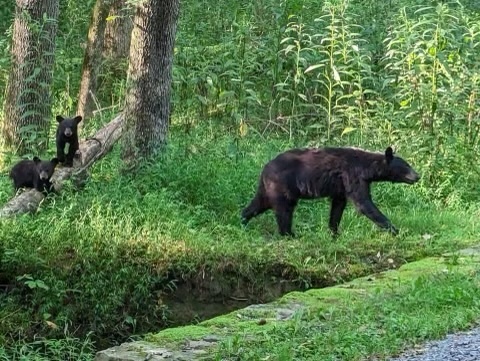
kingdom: Animalia
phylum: Chordata
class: Mammalia
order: Carnivora
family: Ursidae
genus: Ursus
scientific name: Ursus americanus
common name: American black bear
